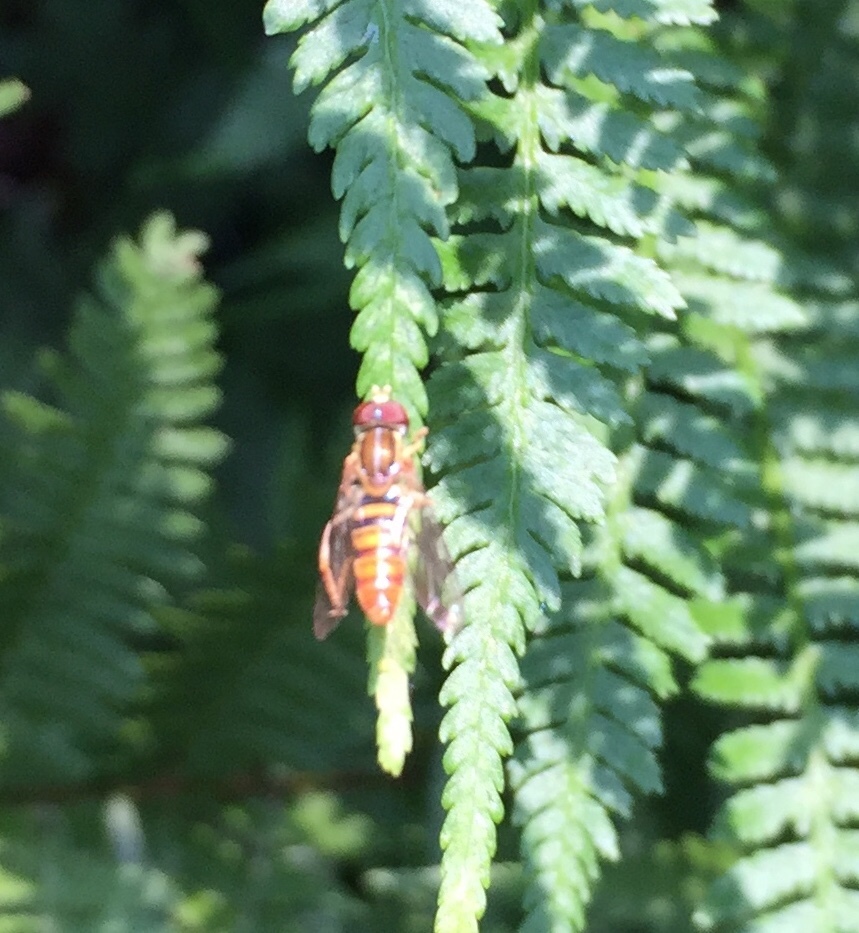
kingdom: Animalia
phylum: Arthropoda
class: Insecta
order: Diptera
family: Syrphidae
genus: Toxomerus
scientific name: Toxomerus politus
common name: Maize calligrapher
